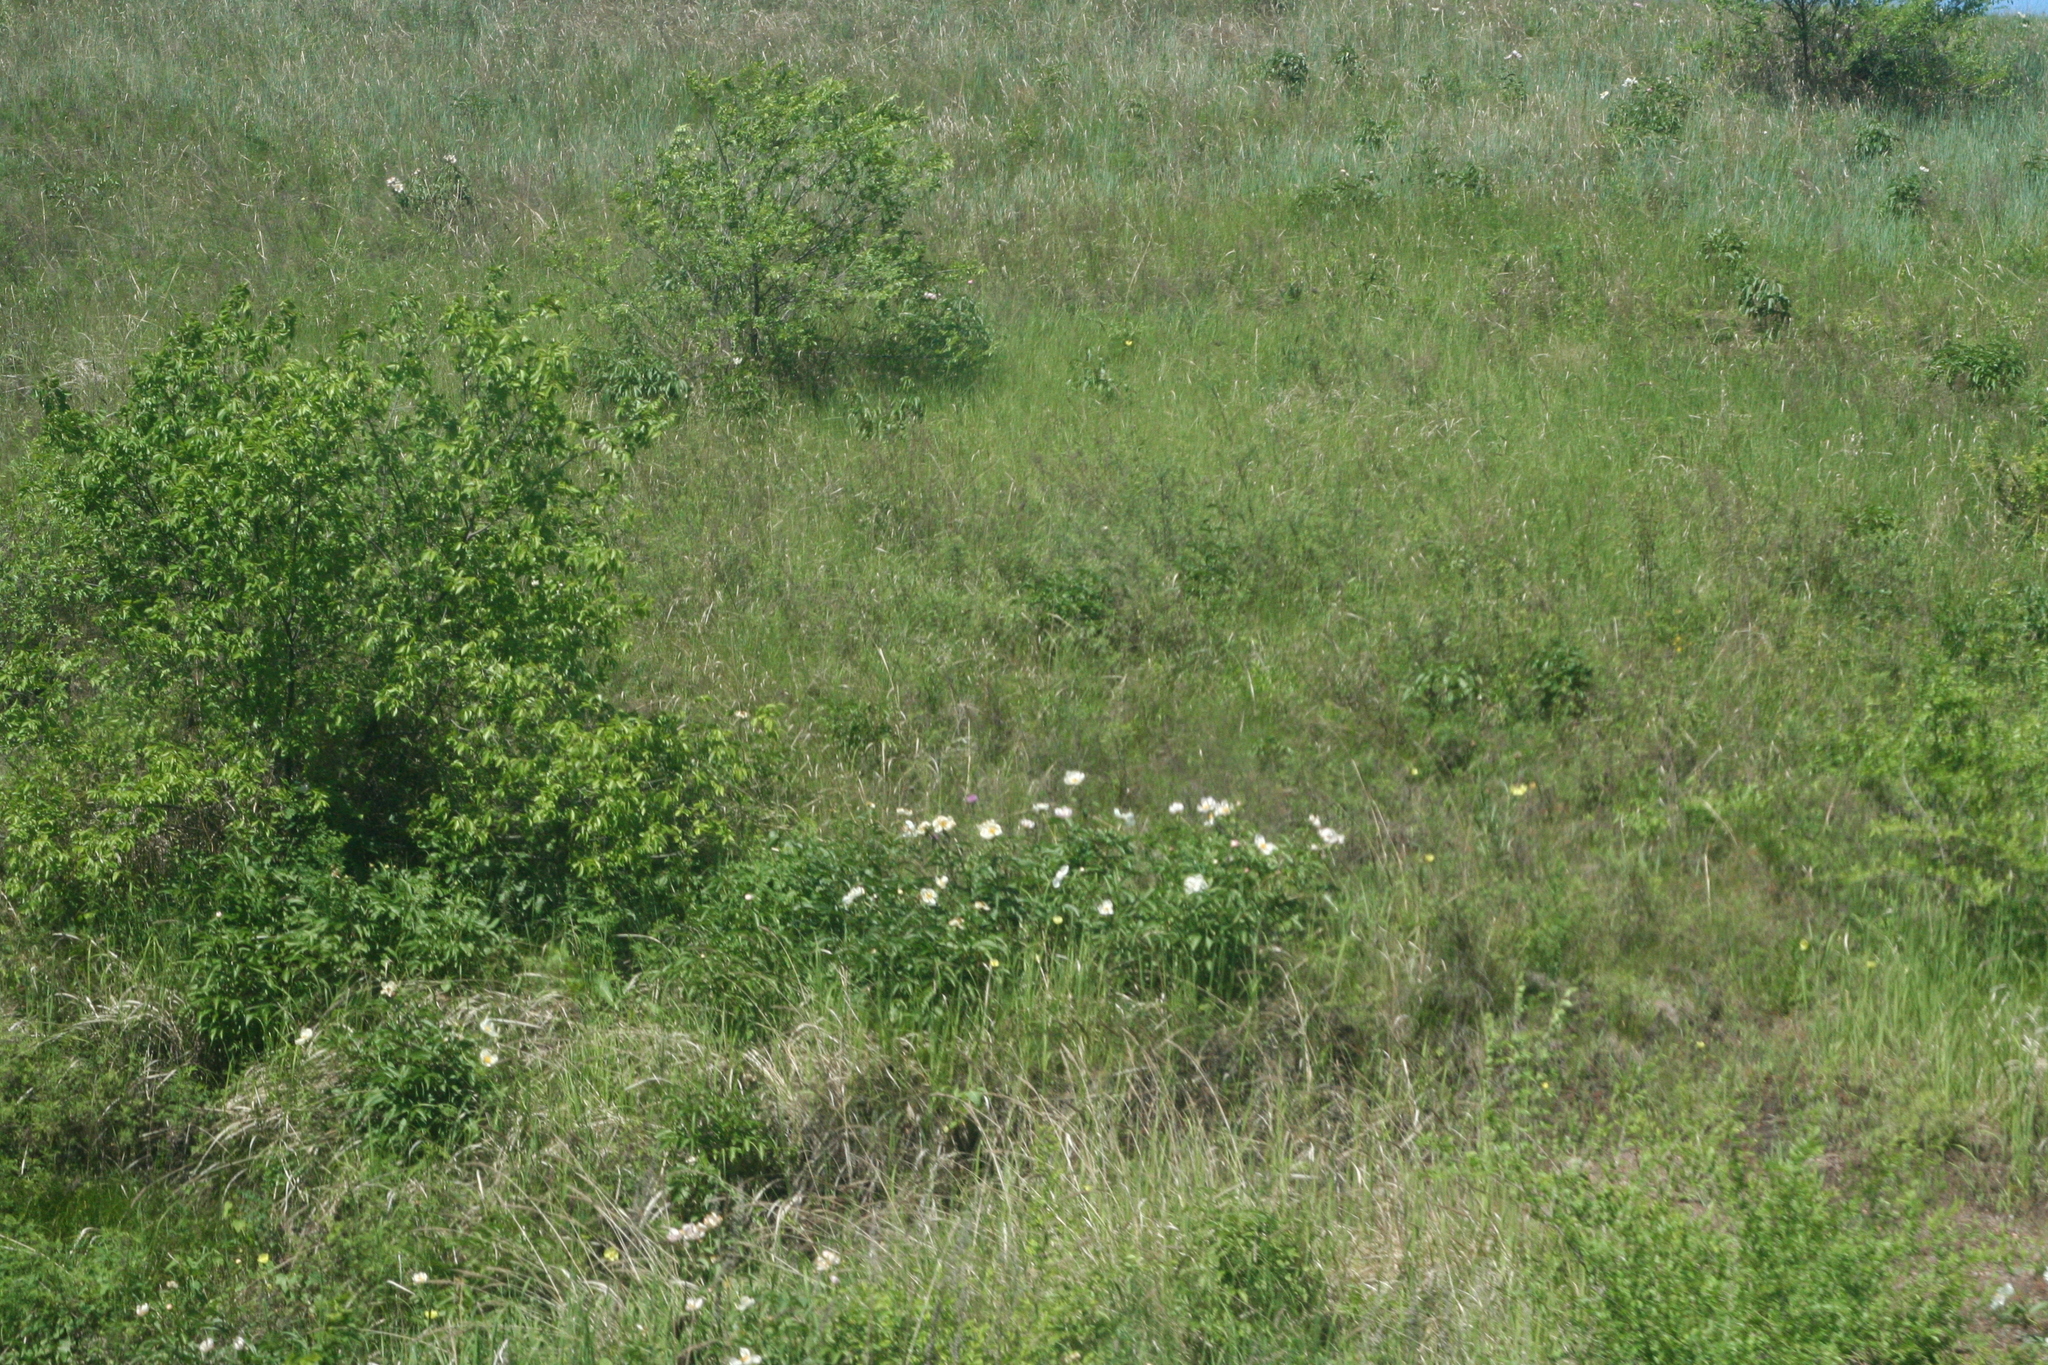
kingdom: Plantae
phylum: Tracheophyta
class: Magnoliopsida
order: Saxifragales
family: Paeoniaceae
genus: Paeonia
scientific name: Paeonia lactiflora
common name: Chinese peony
